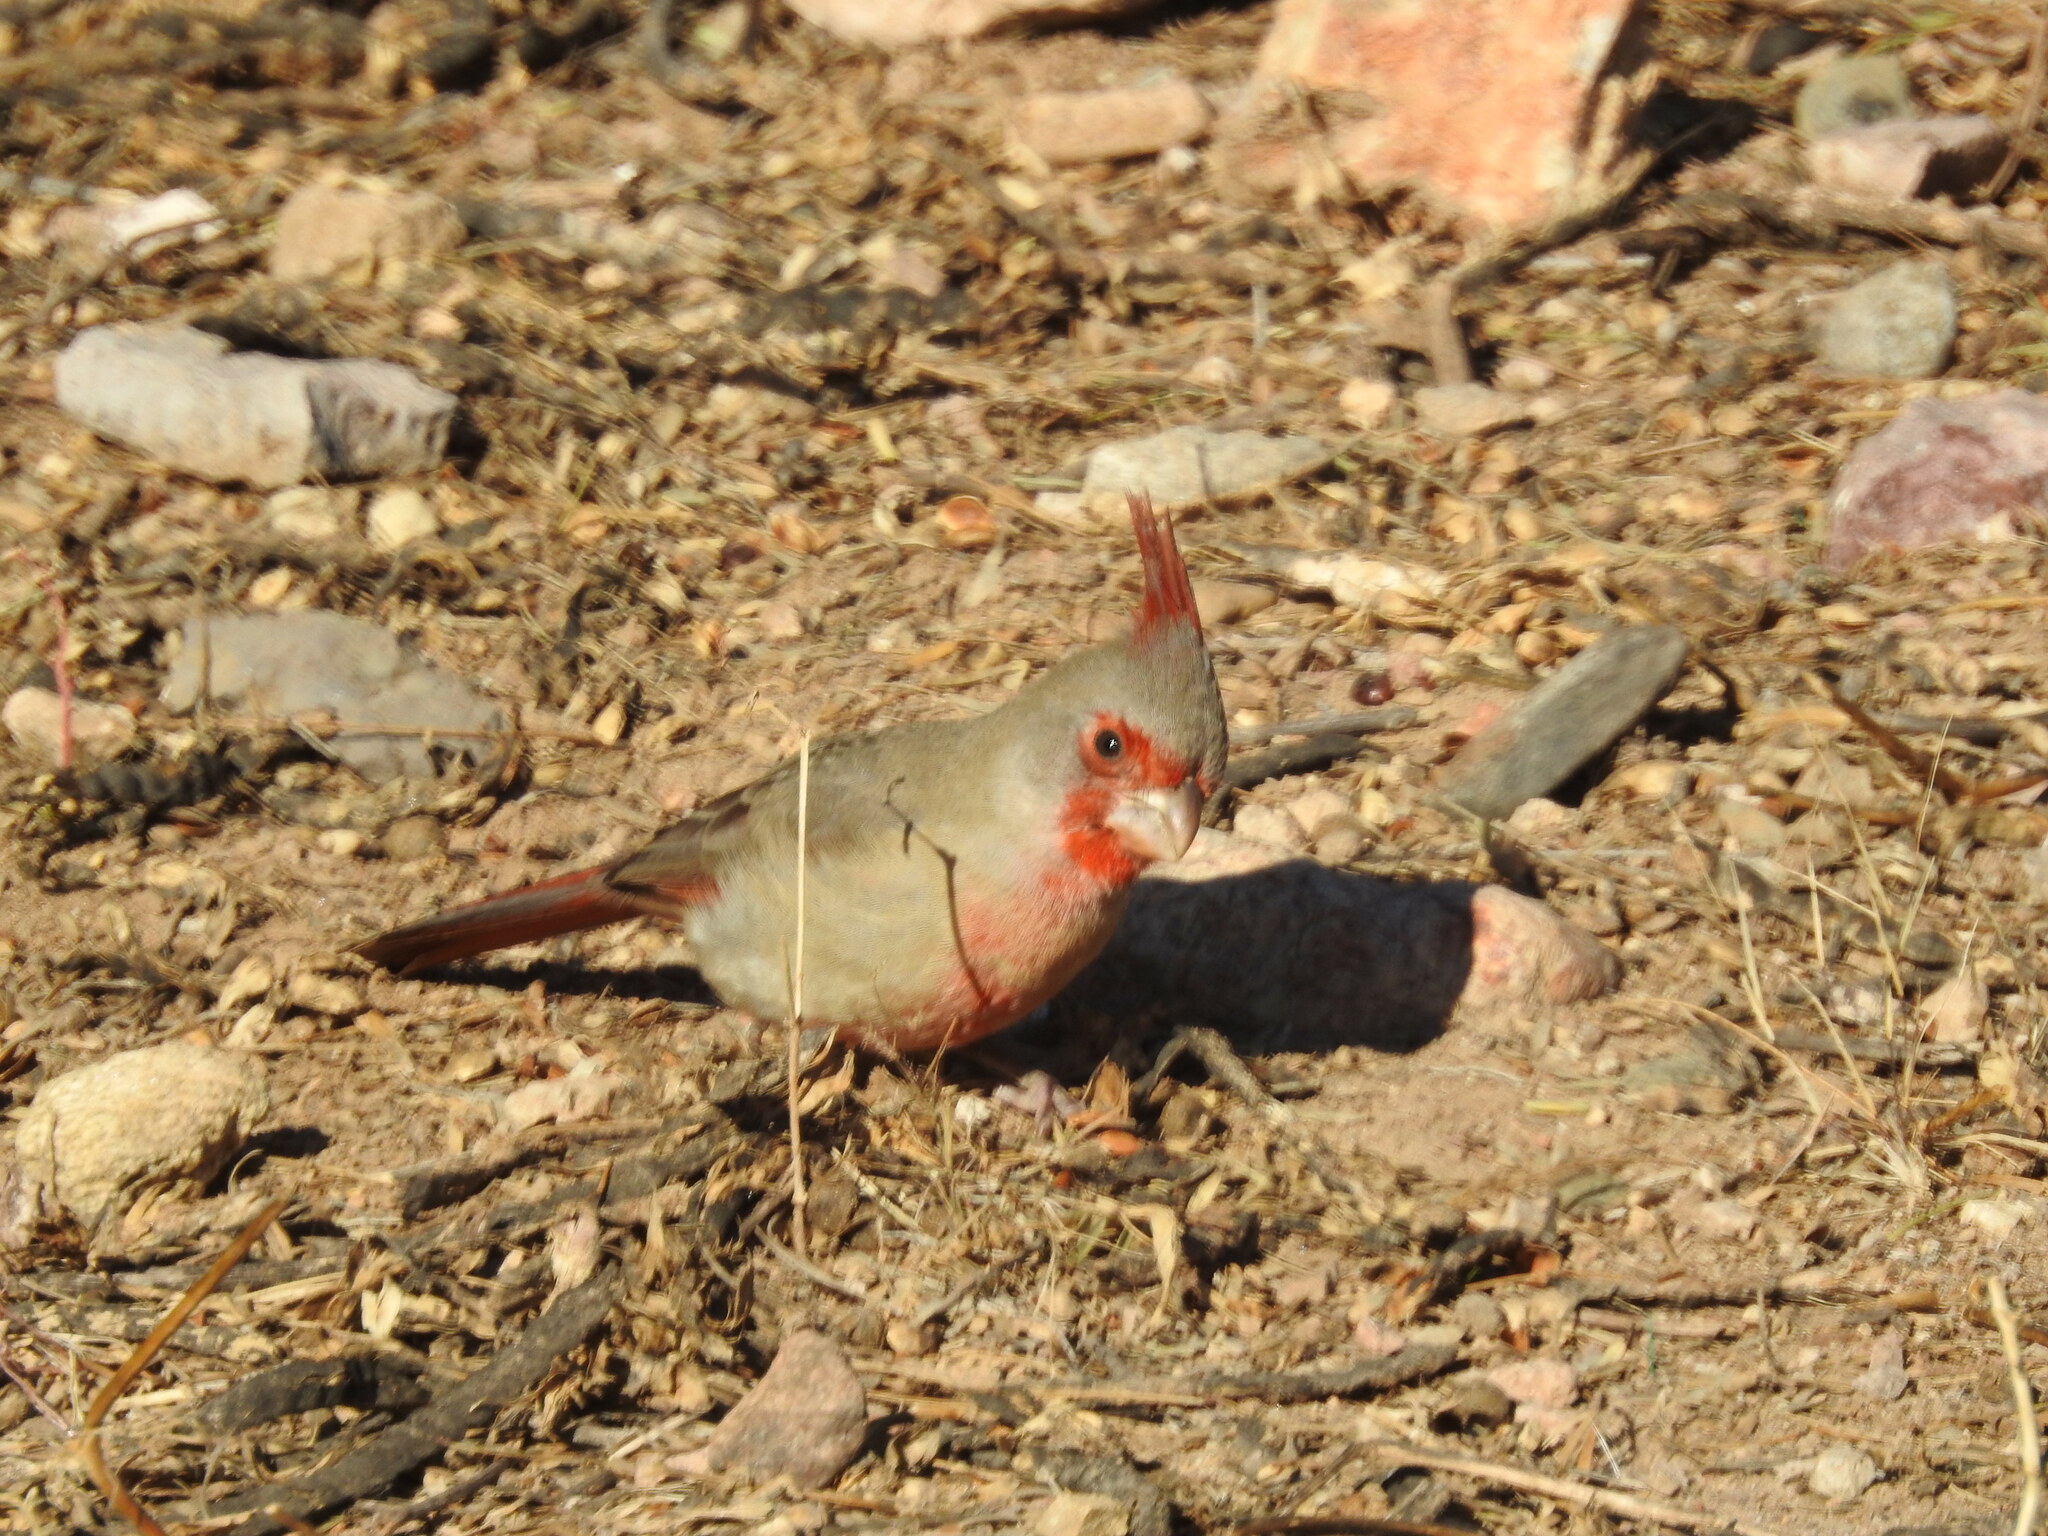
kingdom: Animalia
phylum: Chordata
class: Aves
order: Passeriformes
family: Cardinalidae
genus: Cardinalis
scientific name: Cardinalis sinuatus
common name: Pyrrhuloxia
